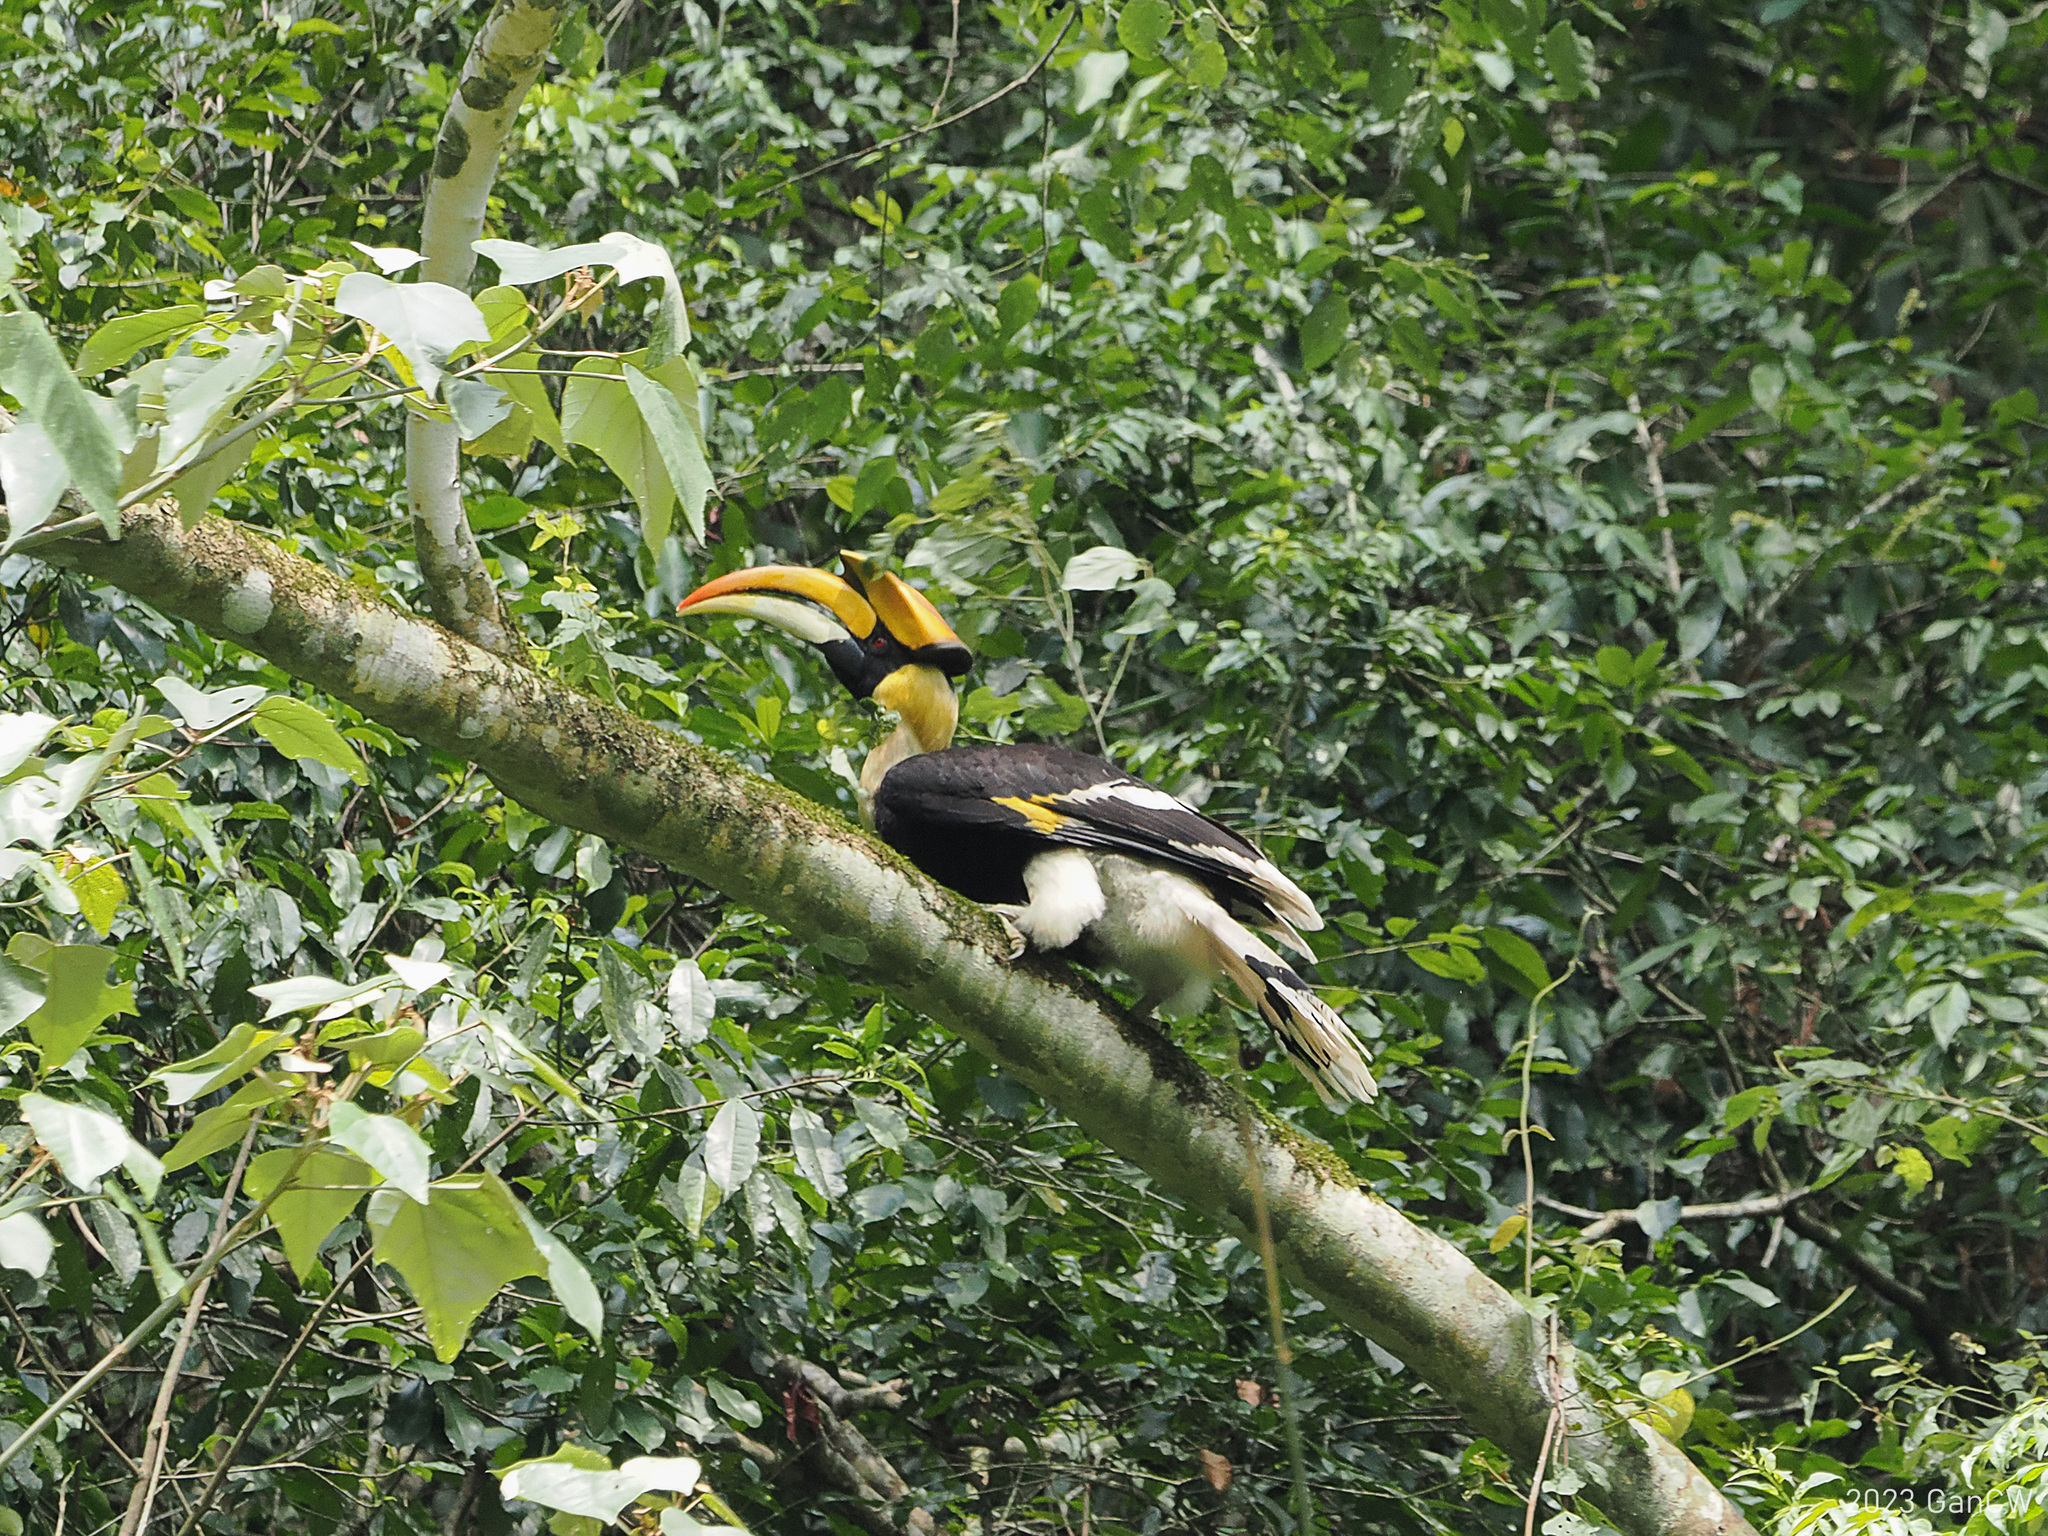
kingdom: Animalia
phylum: Chordata
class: Aves
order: Bucerotiformes
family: Bucerotidae
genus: Buceros
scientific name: Buceros bicornis
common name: Great hornbill
